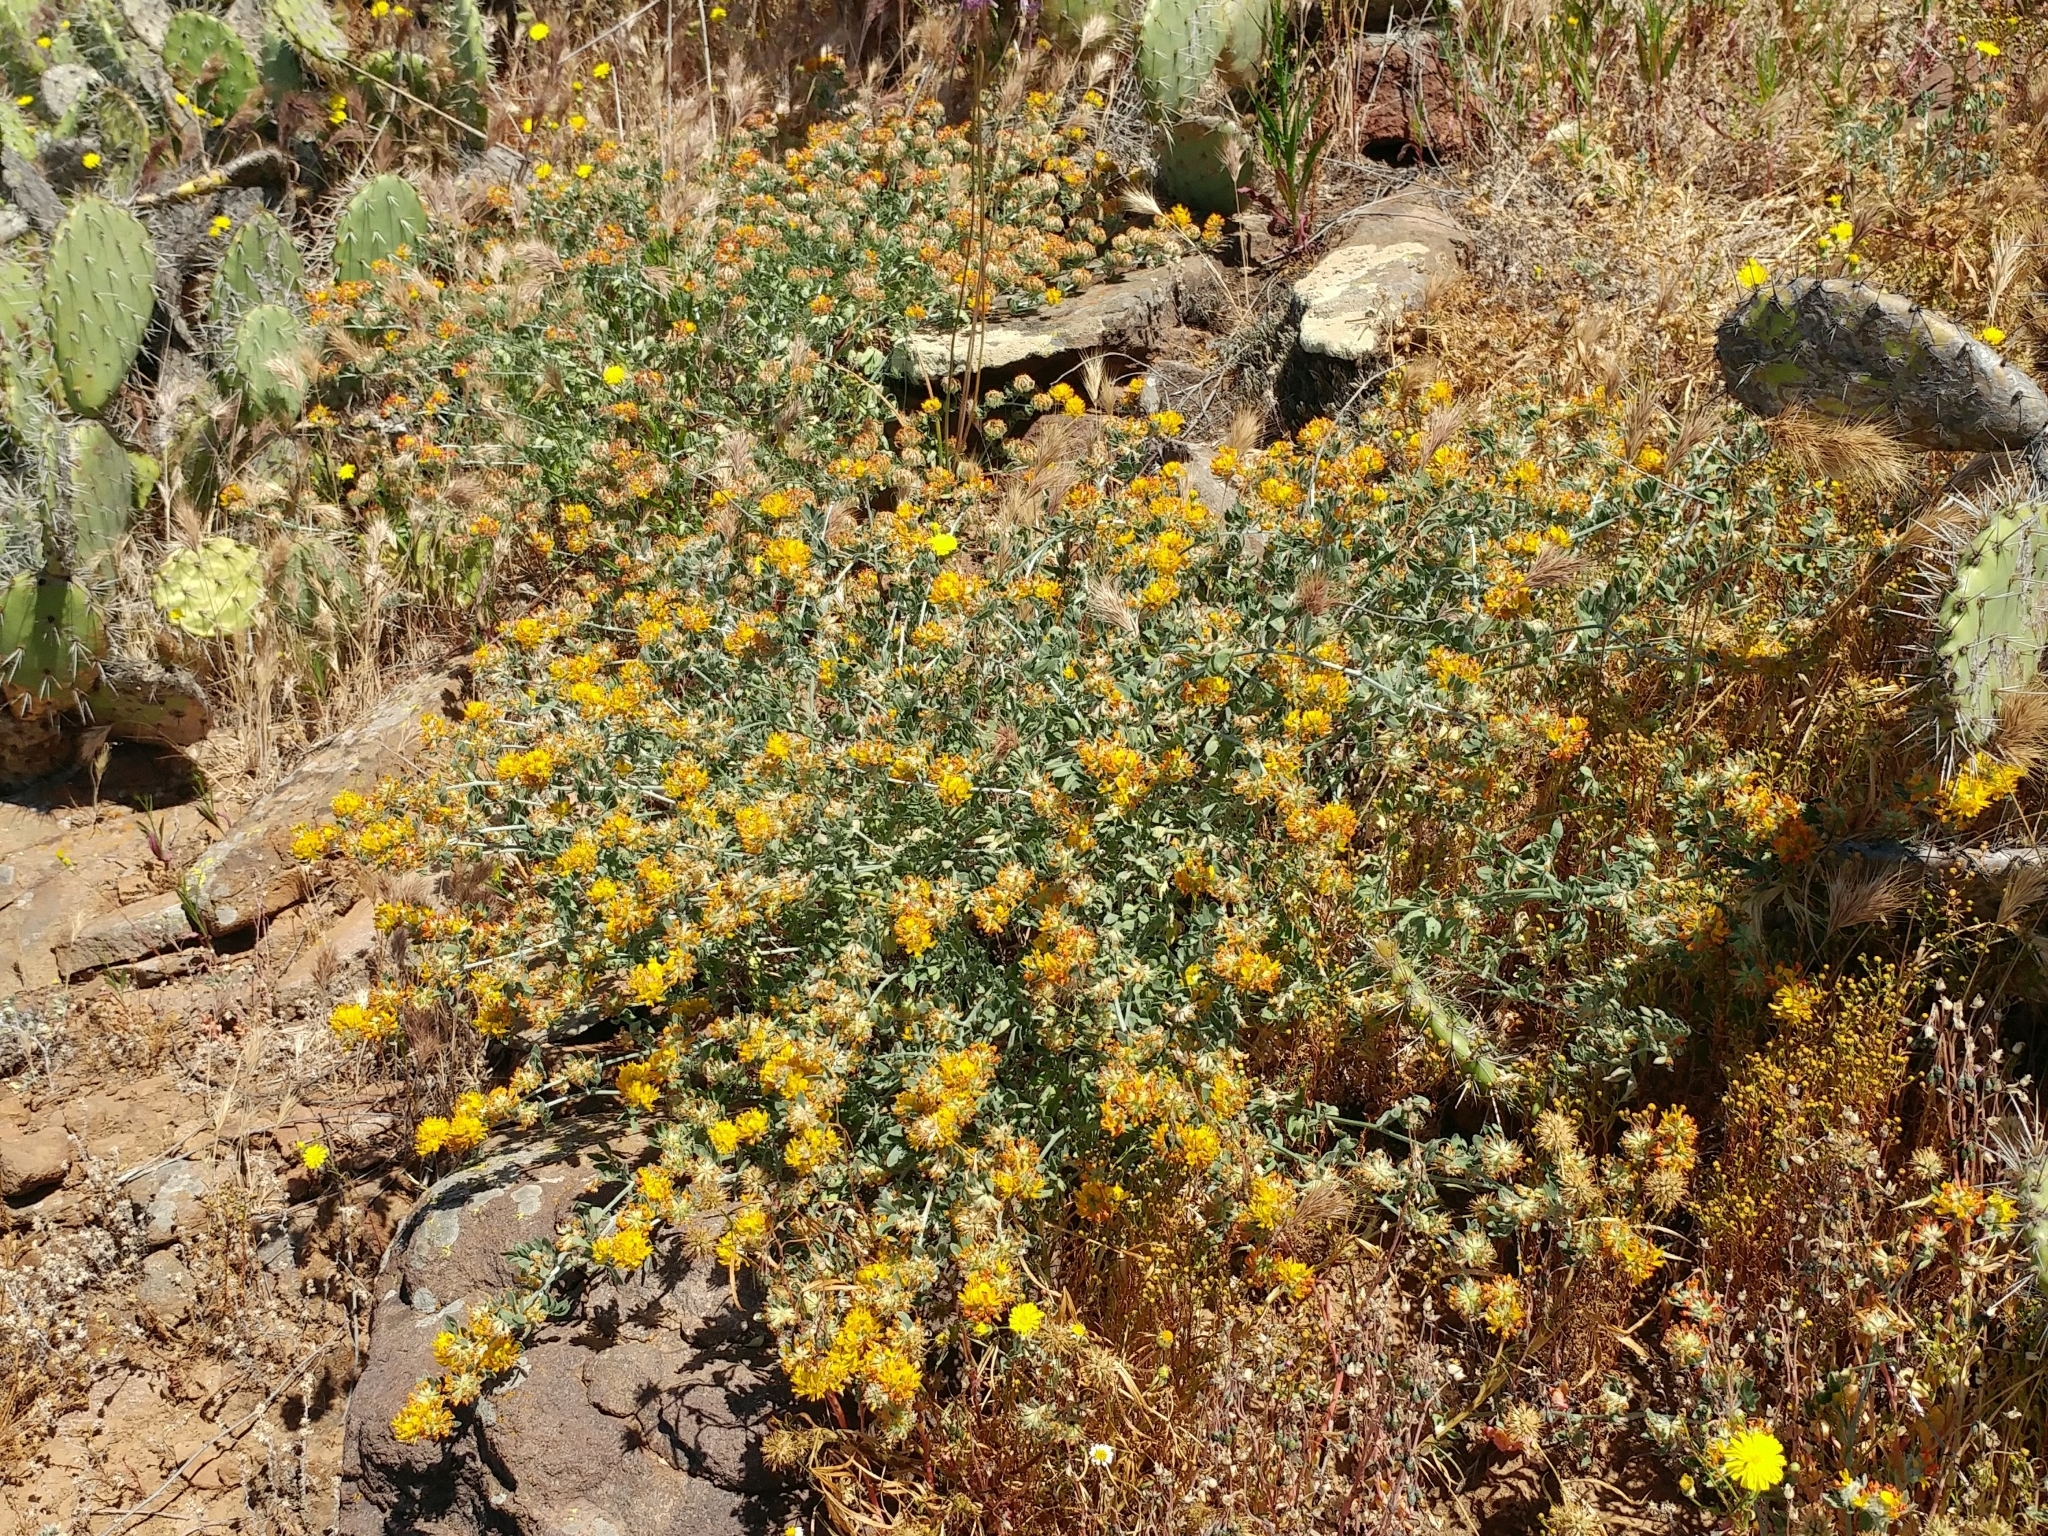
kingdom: Plantae
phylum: Tracheophyta
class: Magnoliopsida
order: Fabales
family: Fabaceae
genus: Acmispon
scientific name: Acmispon argophyllus
